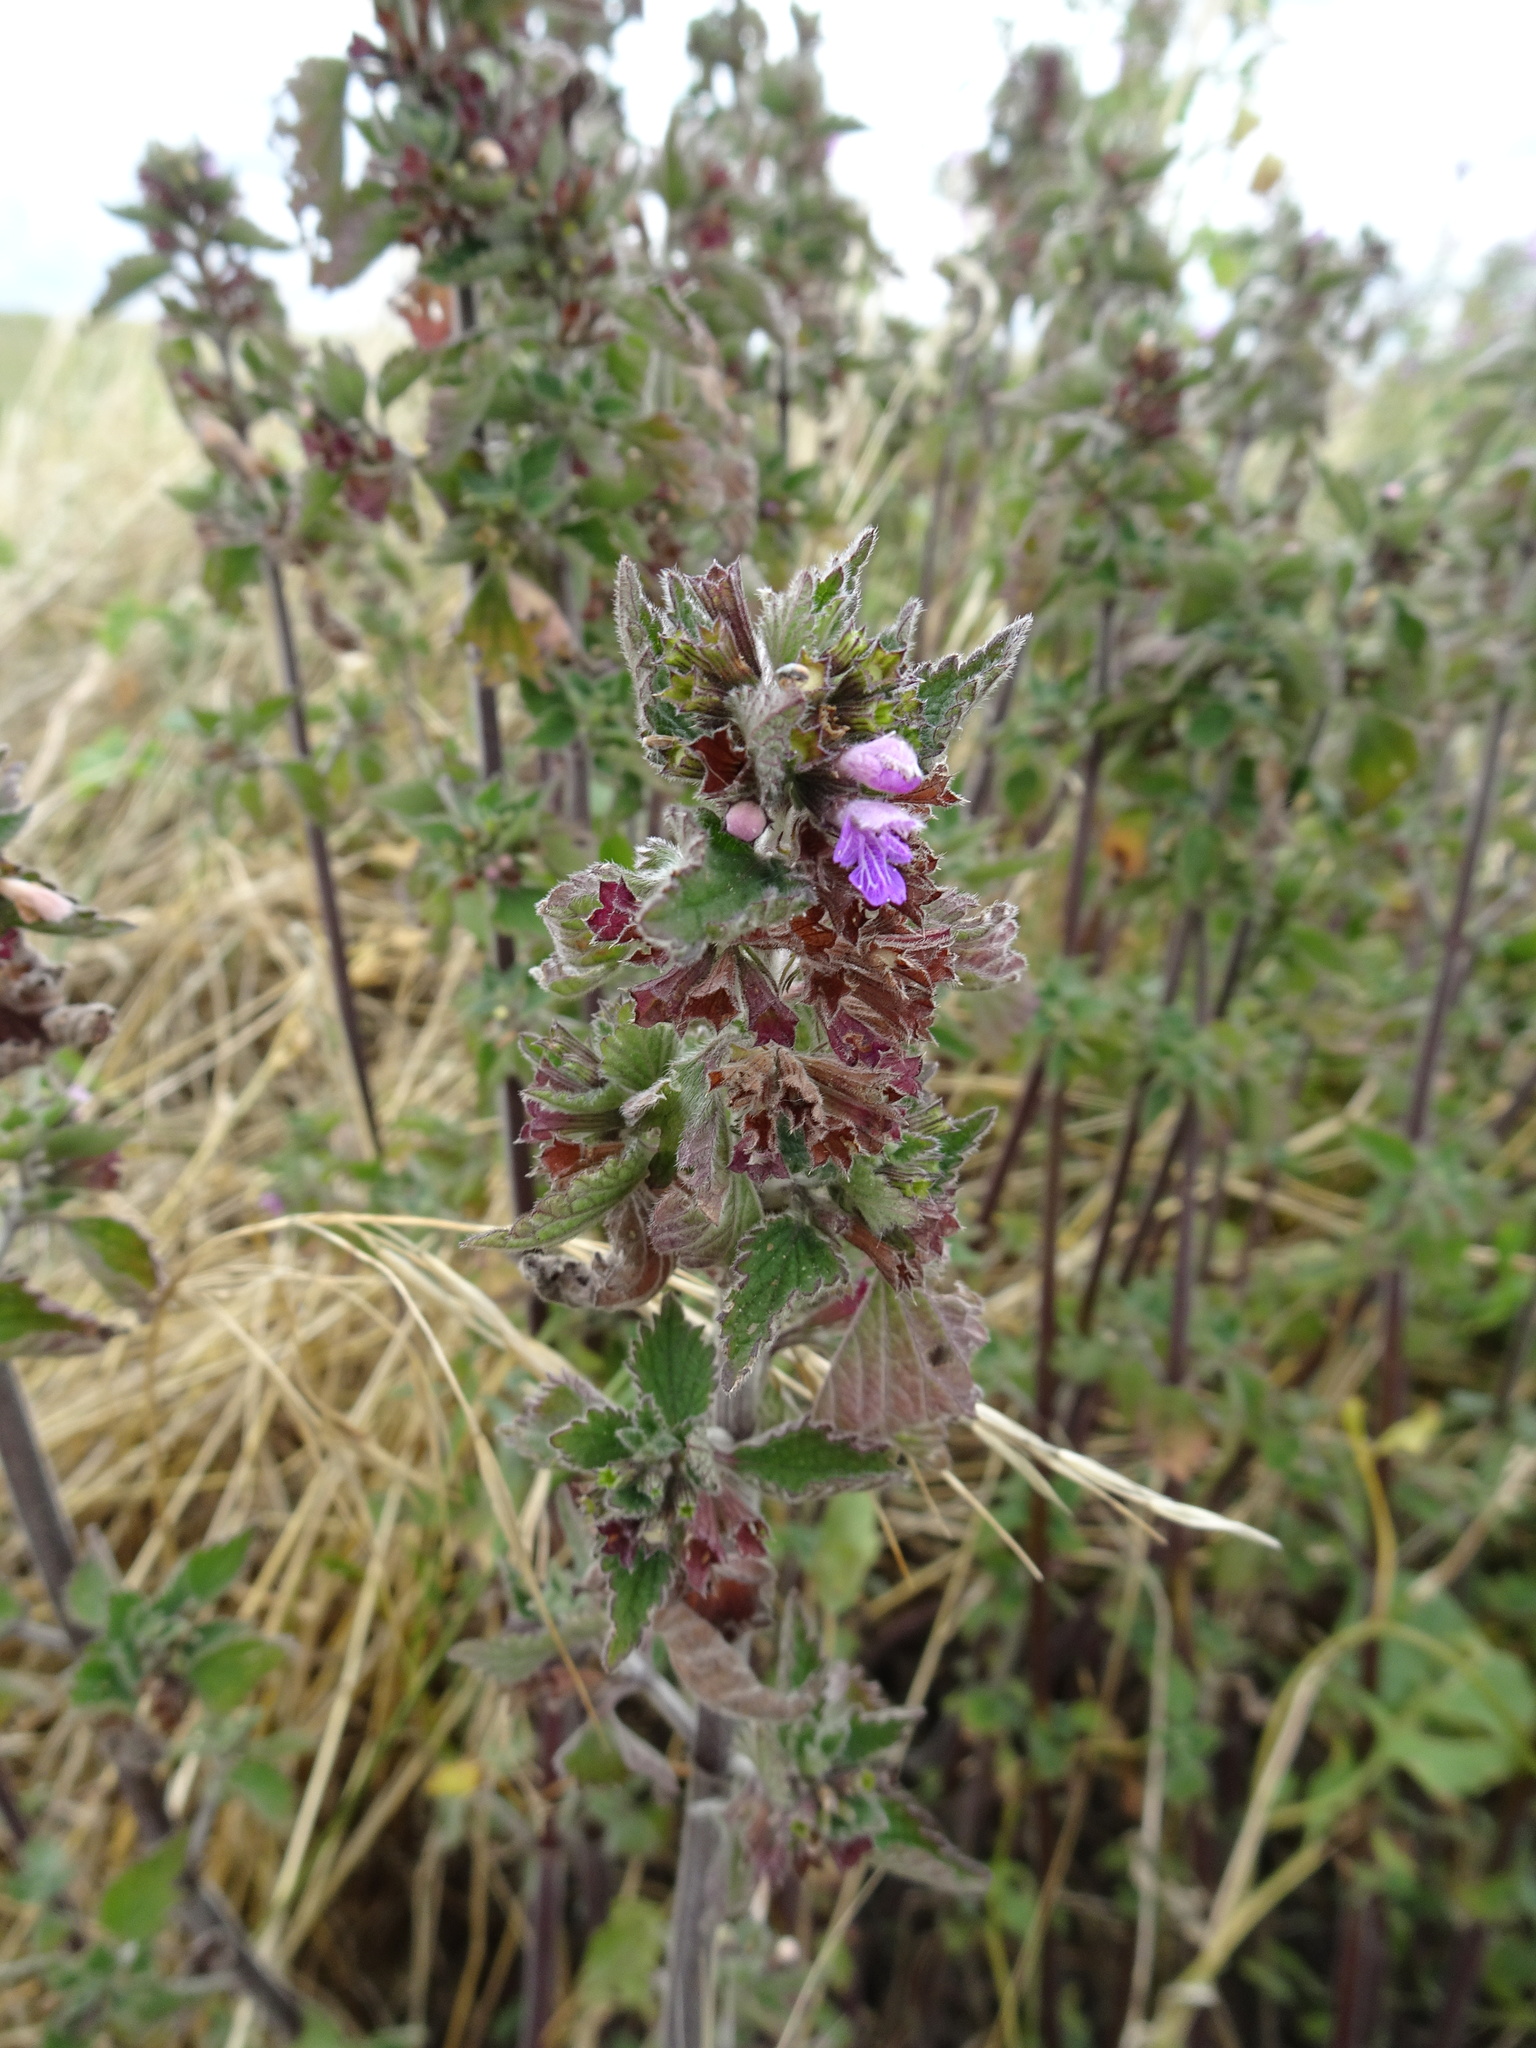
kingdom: Plantae
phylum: Tracheophyta
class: Magnoliopsida
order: Lamiales
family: Lamiaceae
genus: Ballota
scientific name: Ballota nigra
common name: Black horehound
